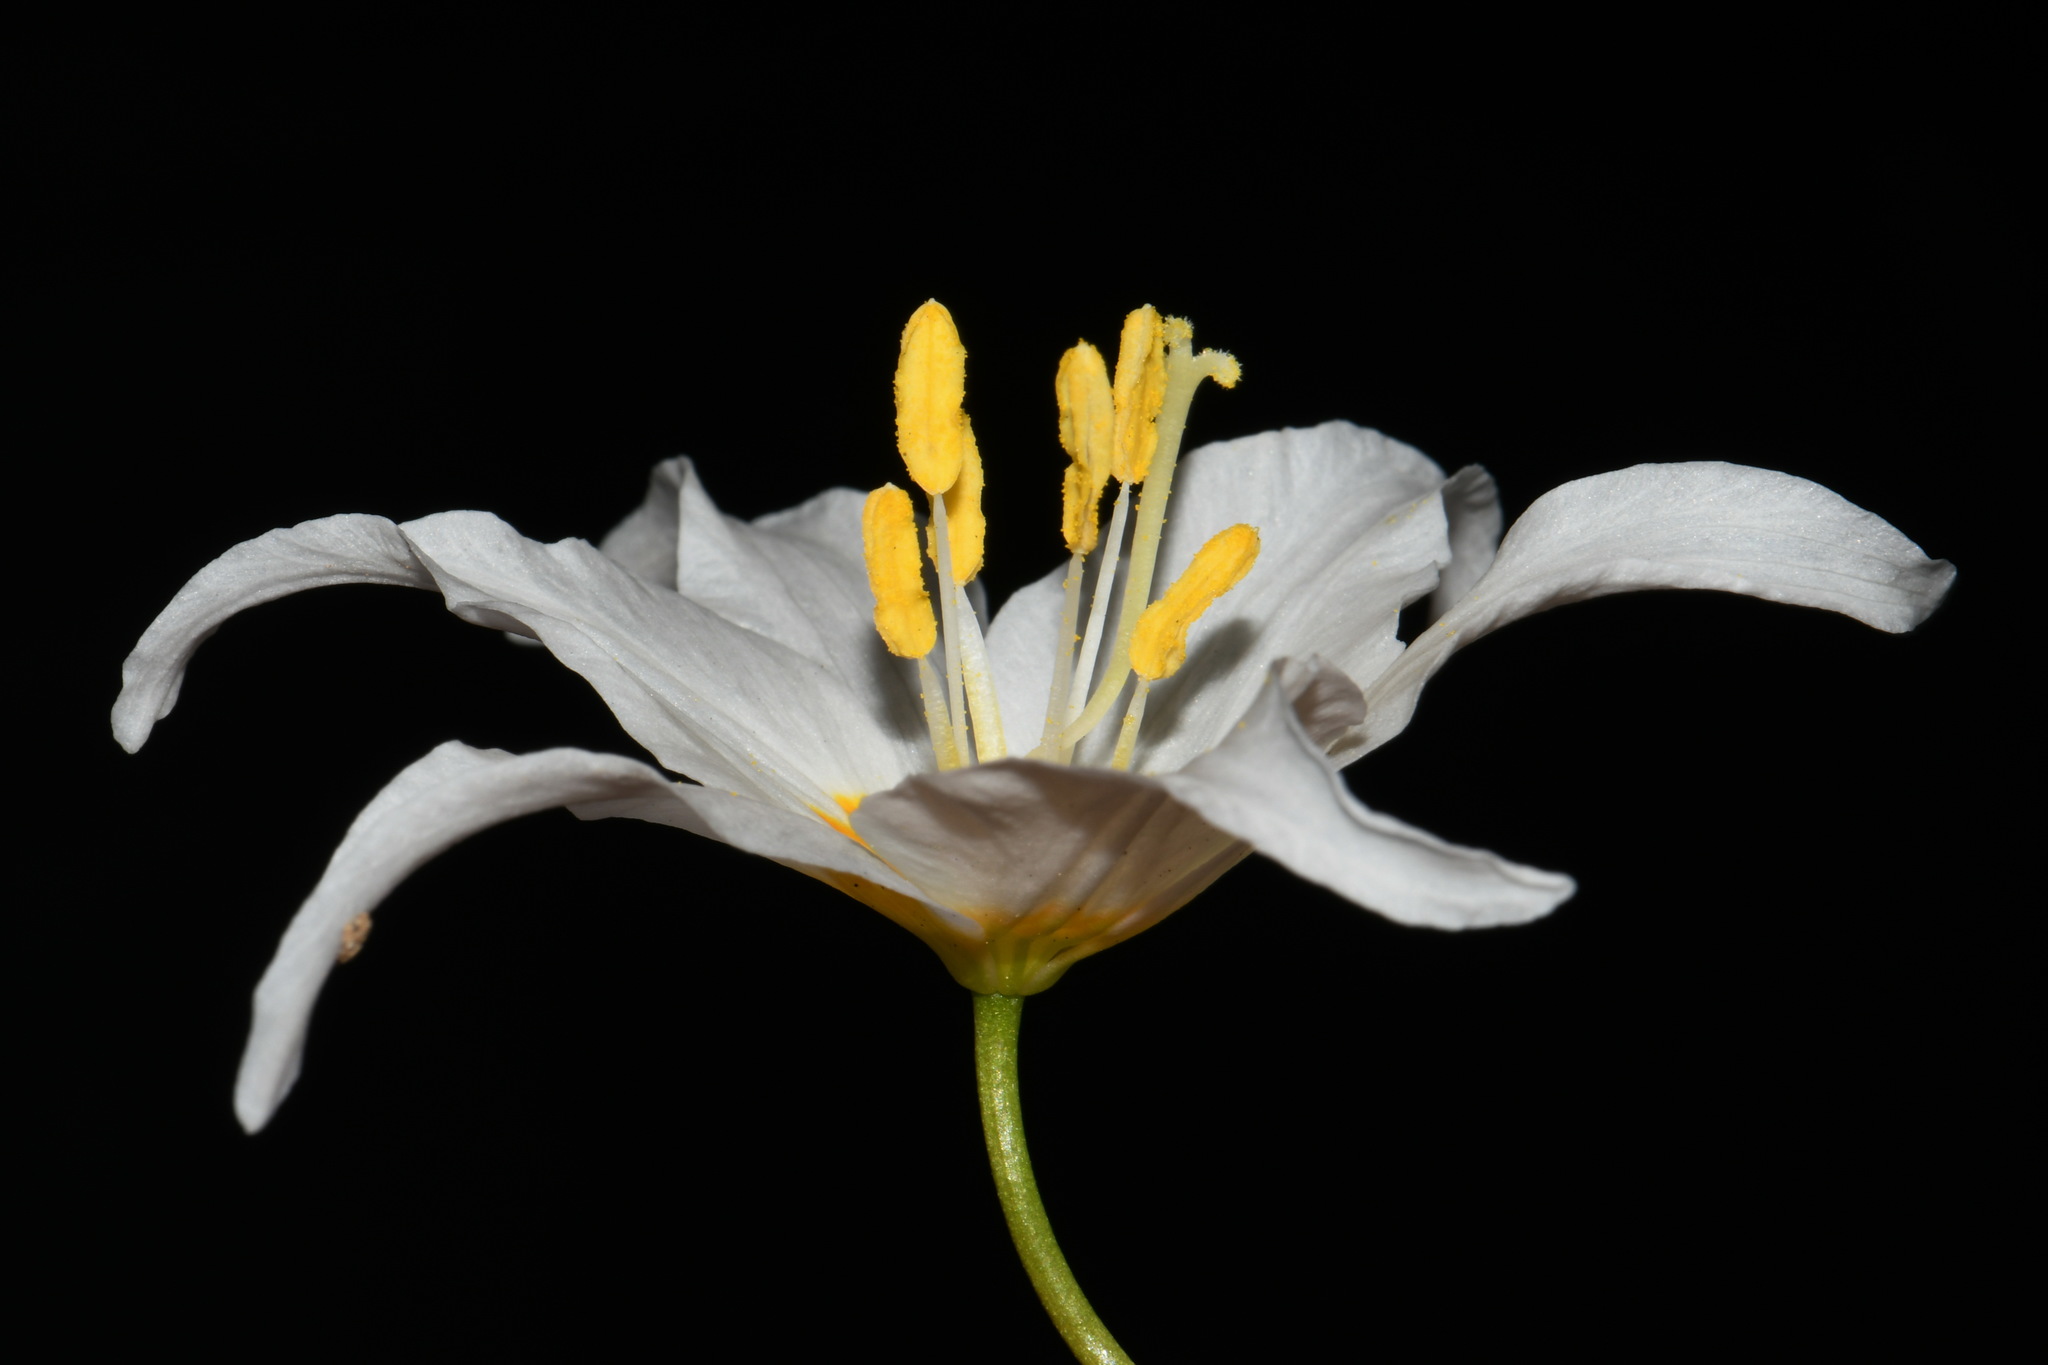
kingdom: Plantae
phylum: Tracheophyta
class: Liliopsida
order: Liliales
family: Liliaceae
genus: Erythronium
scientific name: Erythronium montanum
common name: Avalanche lily
